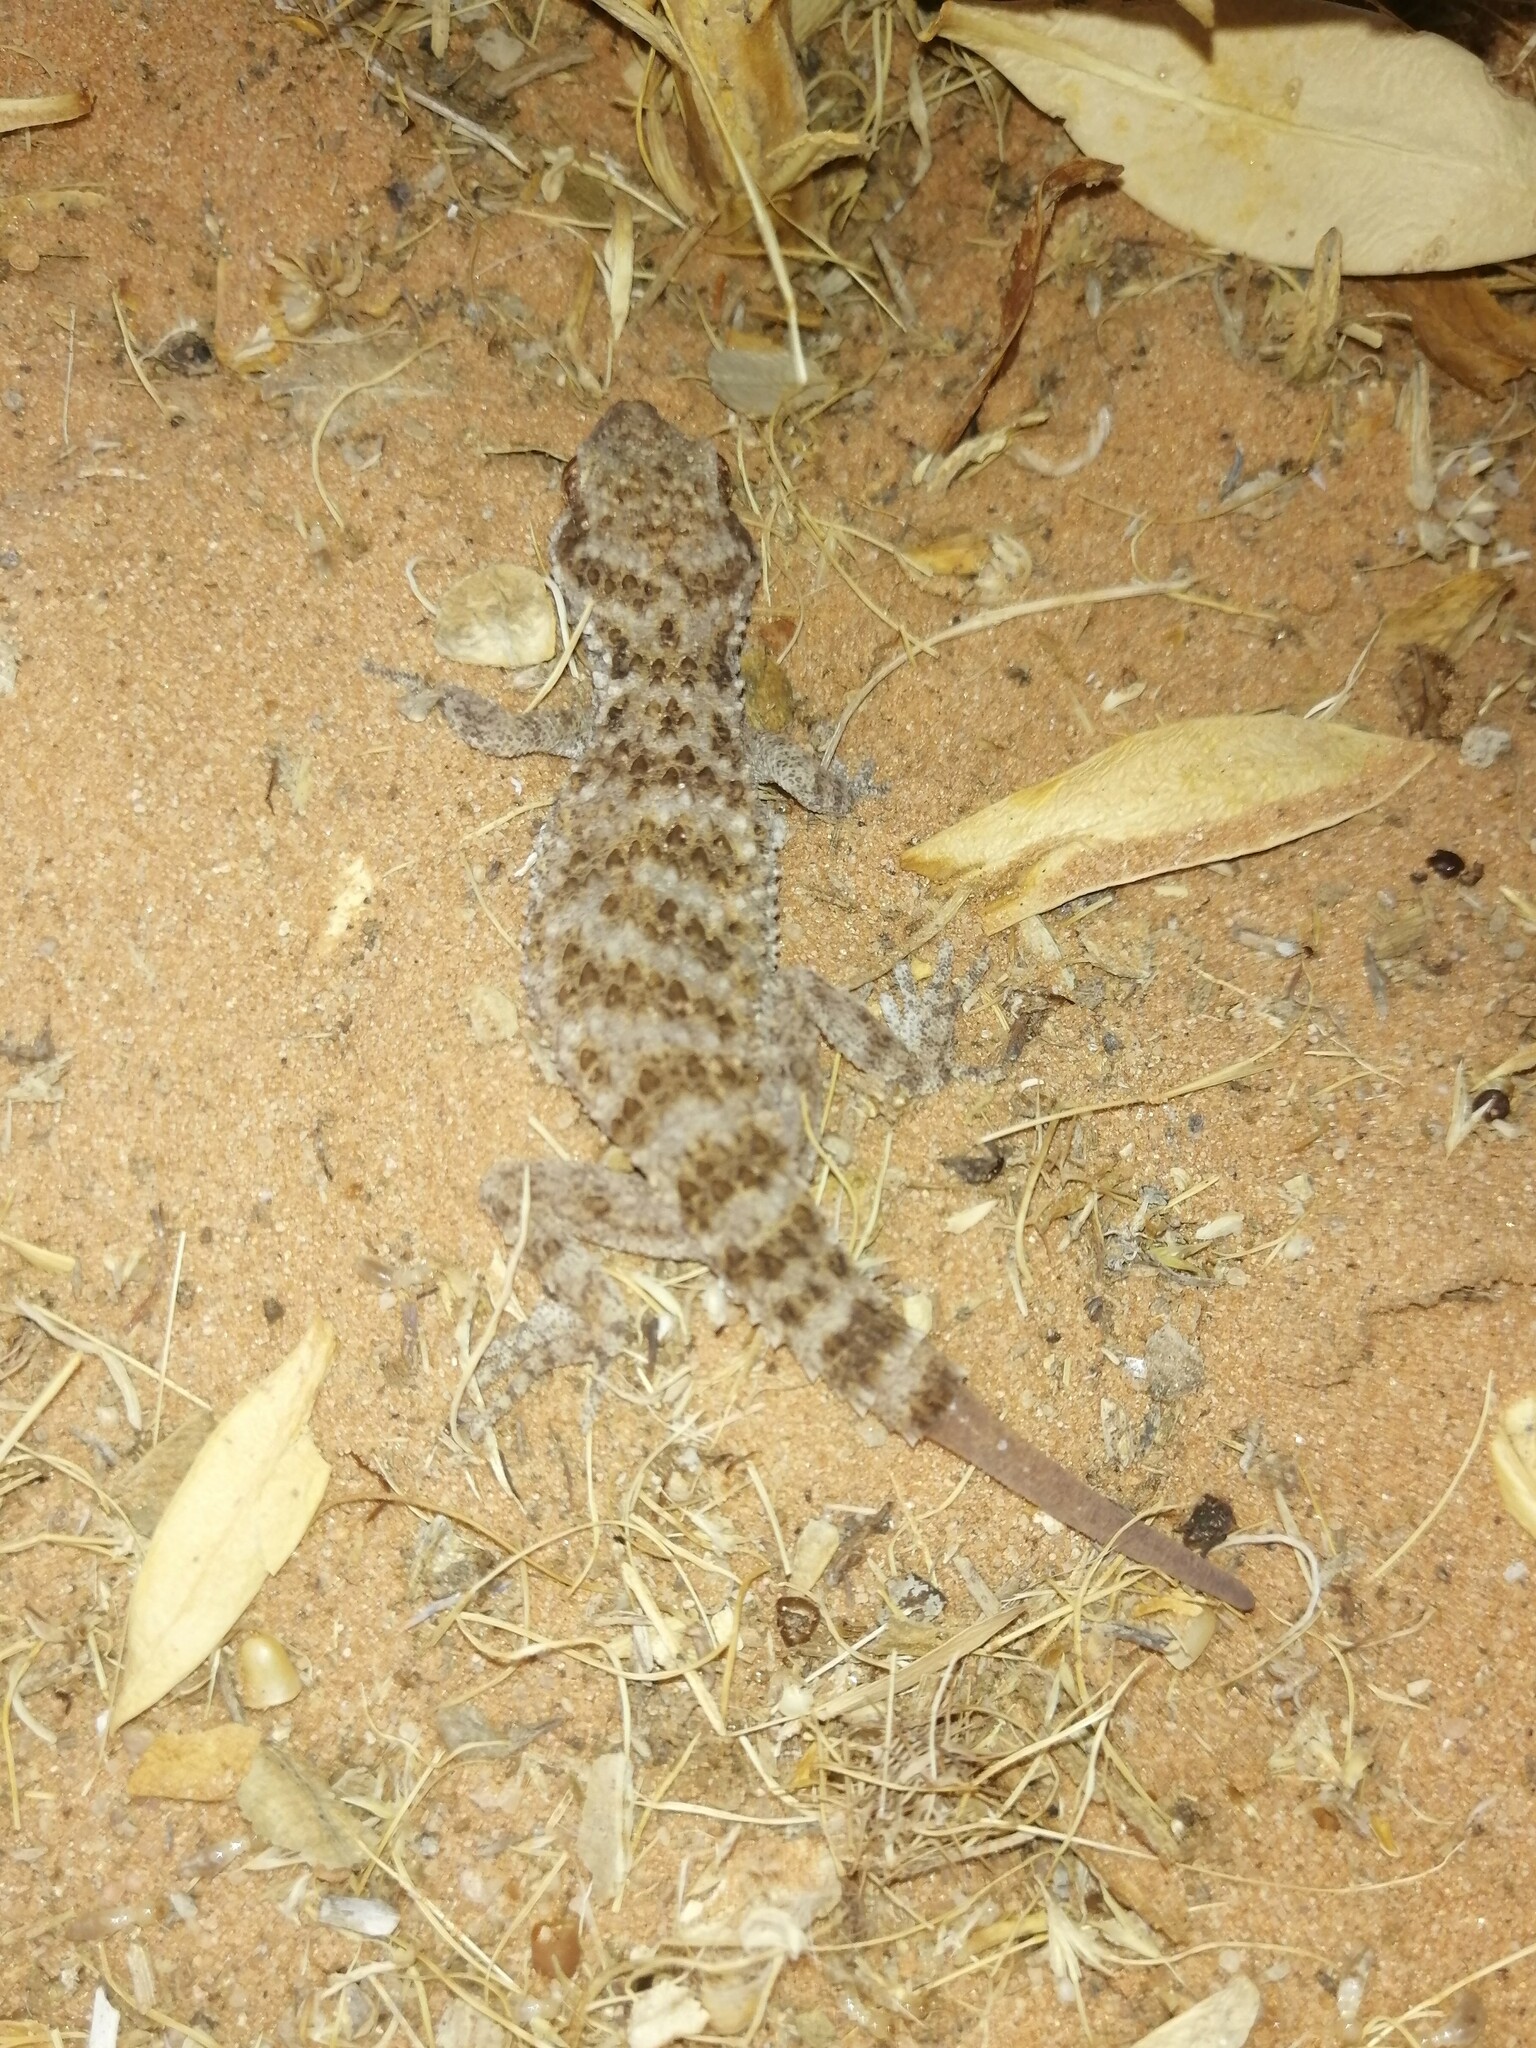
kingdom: Animalia
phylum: Chordata
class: Squamata
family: Gekkonidae
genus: Bunopus
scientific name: Bunopus tuberculatus
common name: Southern tuberculated gecko
